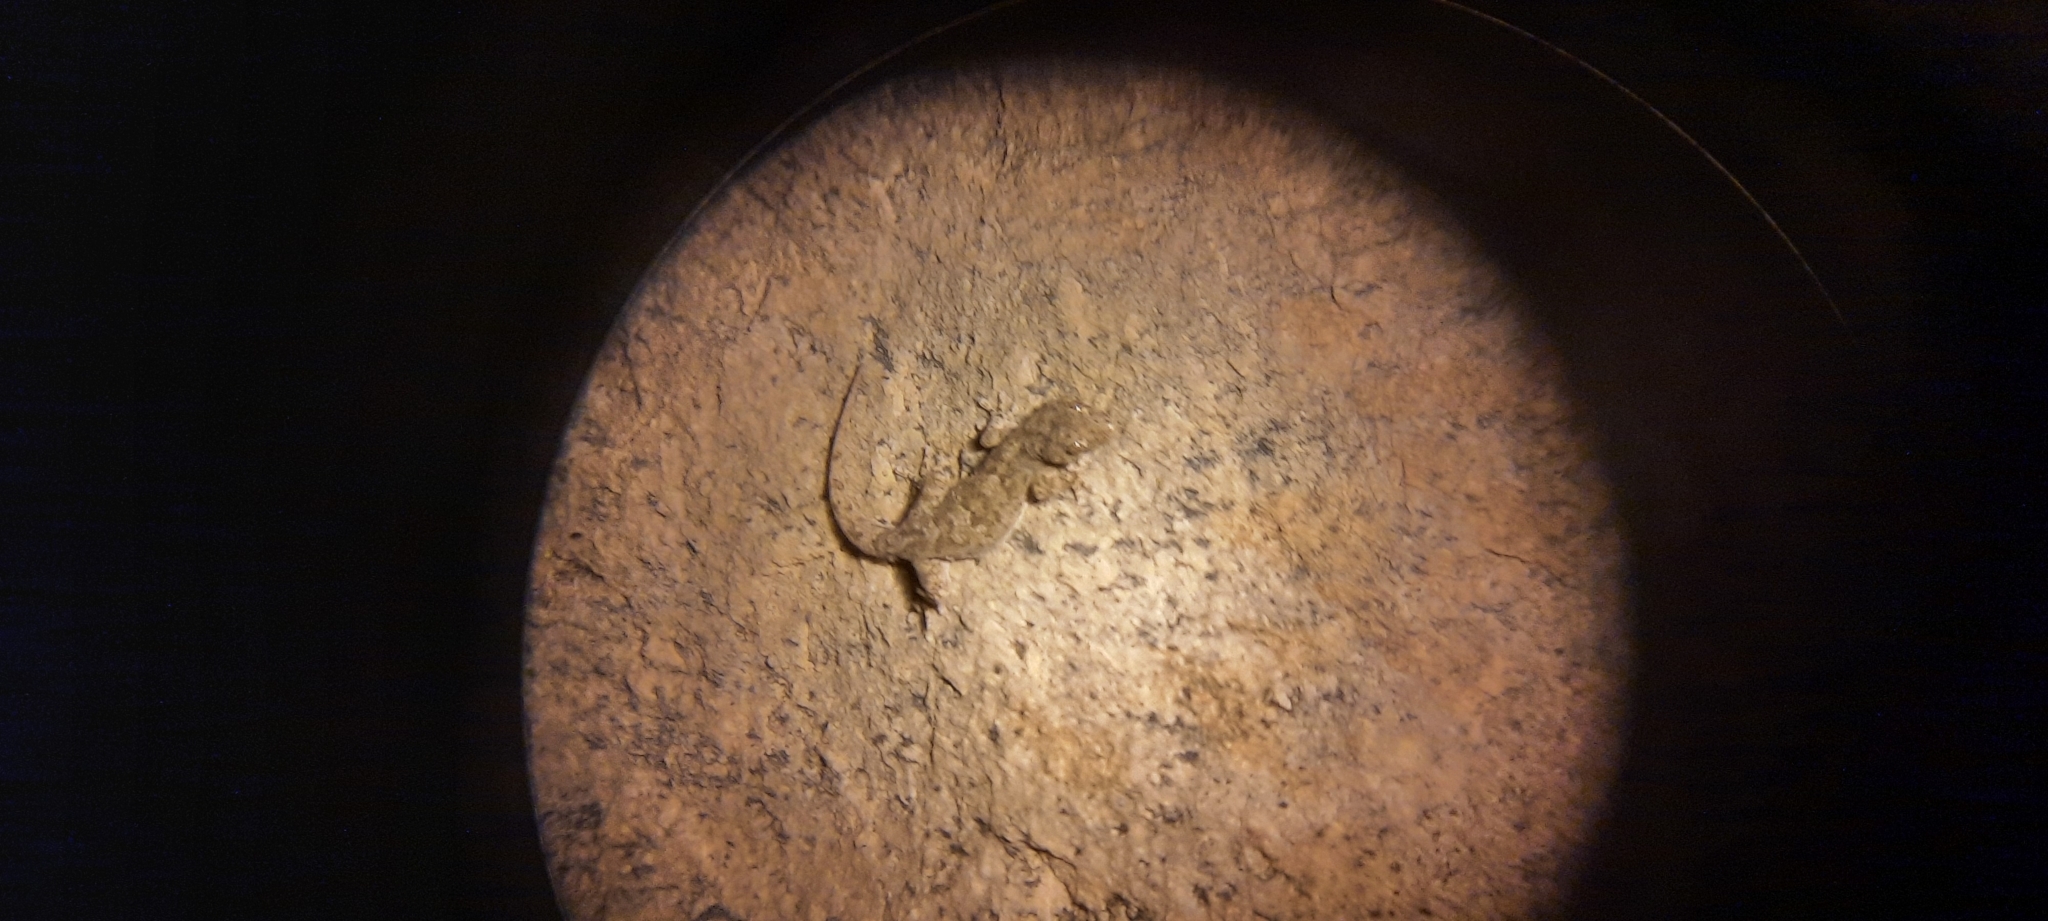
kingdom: Animalia
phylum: Chordata
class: Squamata
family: Gekkonidae
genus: Pachydactylus
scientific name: Pachydactylus haackei
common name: Haacke's gecko
